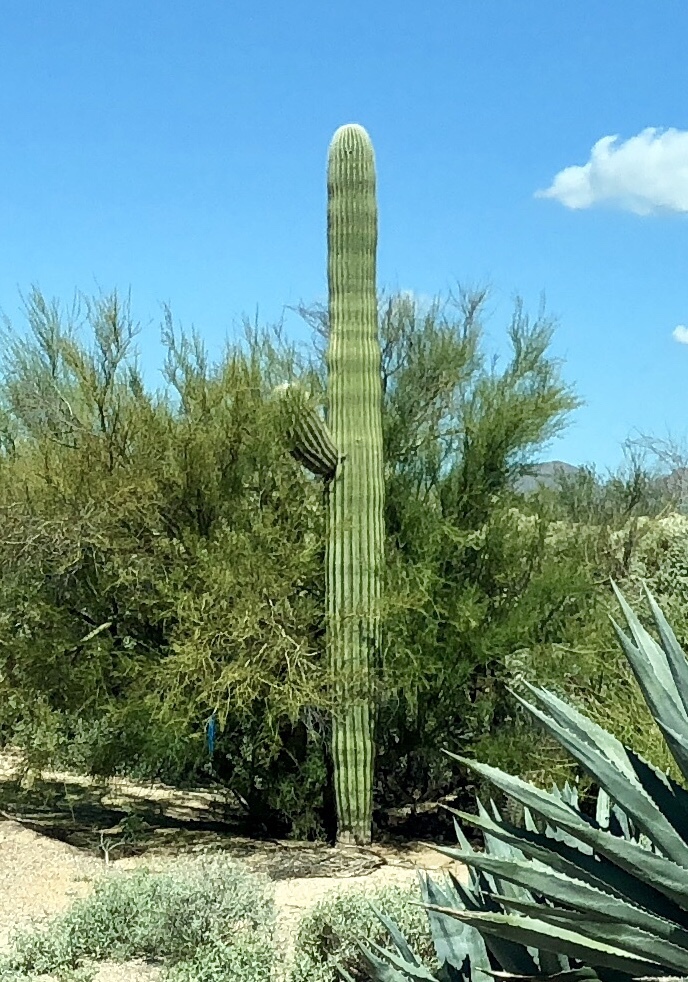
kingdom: Plantae
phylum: Tracheophyta
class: Magnoliopsida
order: Caryophyllales
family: Cactaceae
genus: Carnegiea
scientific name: Carnegiea gigantea
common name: Saguaro
